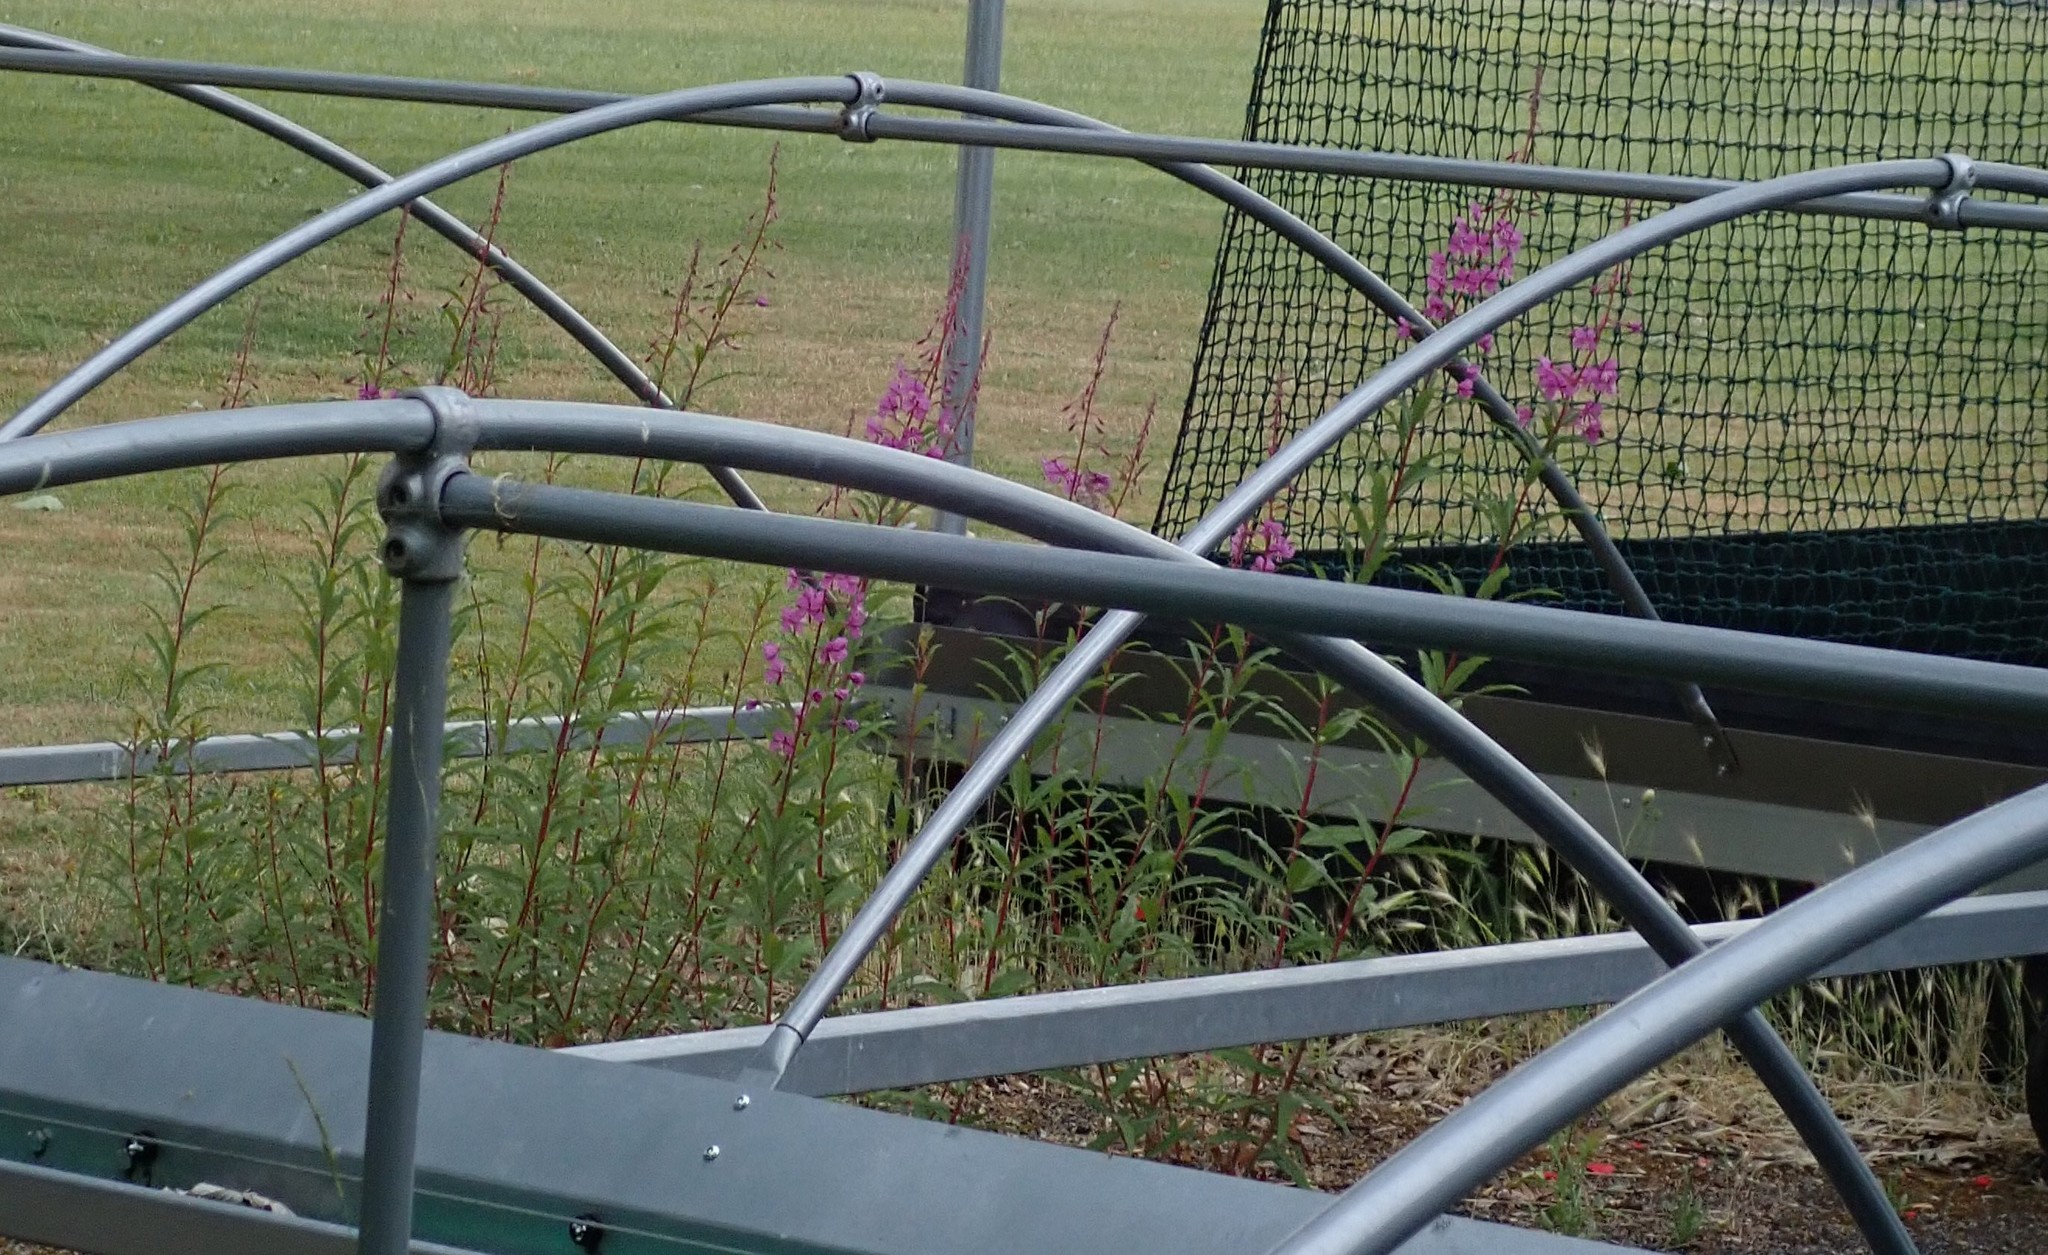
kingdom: Plantae
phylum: Tracheophyta
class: Magnoliopsida
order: Myrtales
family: Onagraceae
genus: Chamaenerion
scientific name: Chamaenerion angustifolium
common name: Fireweed
